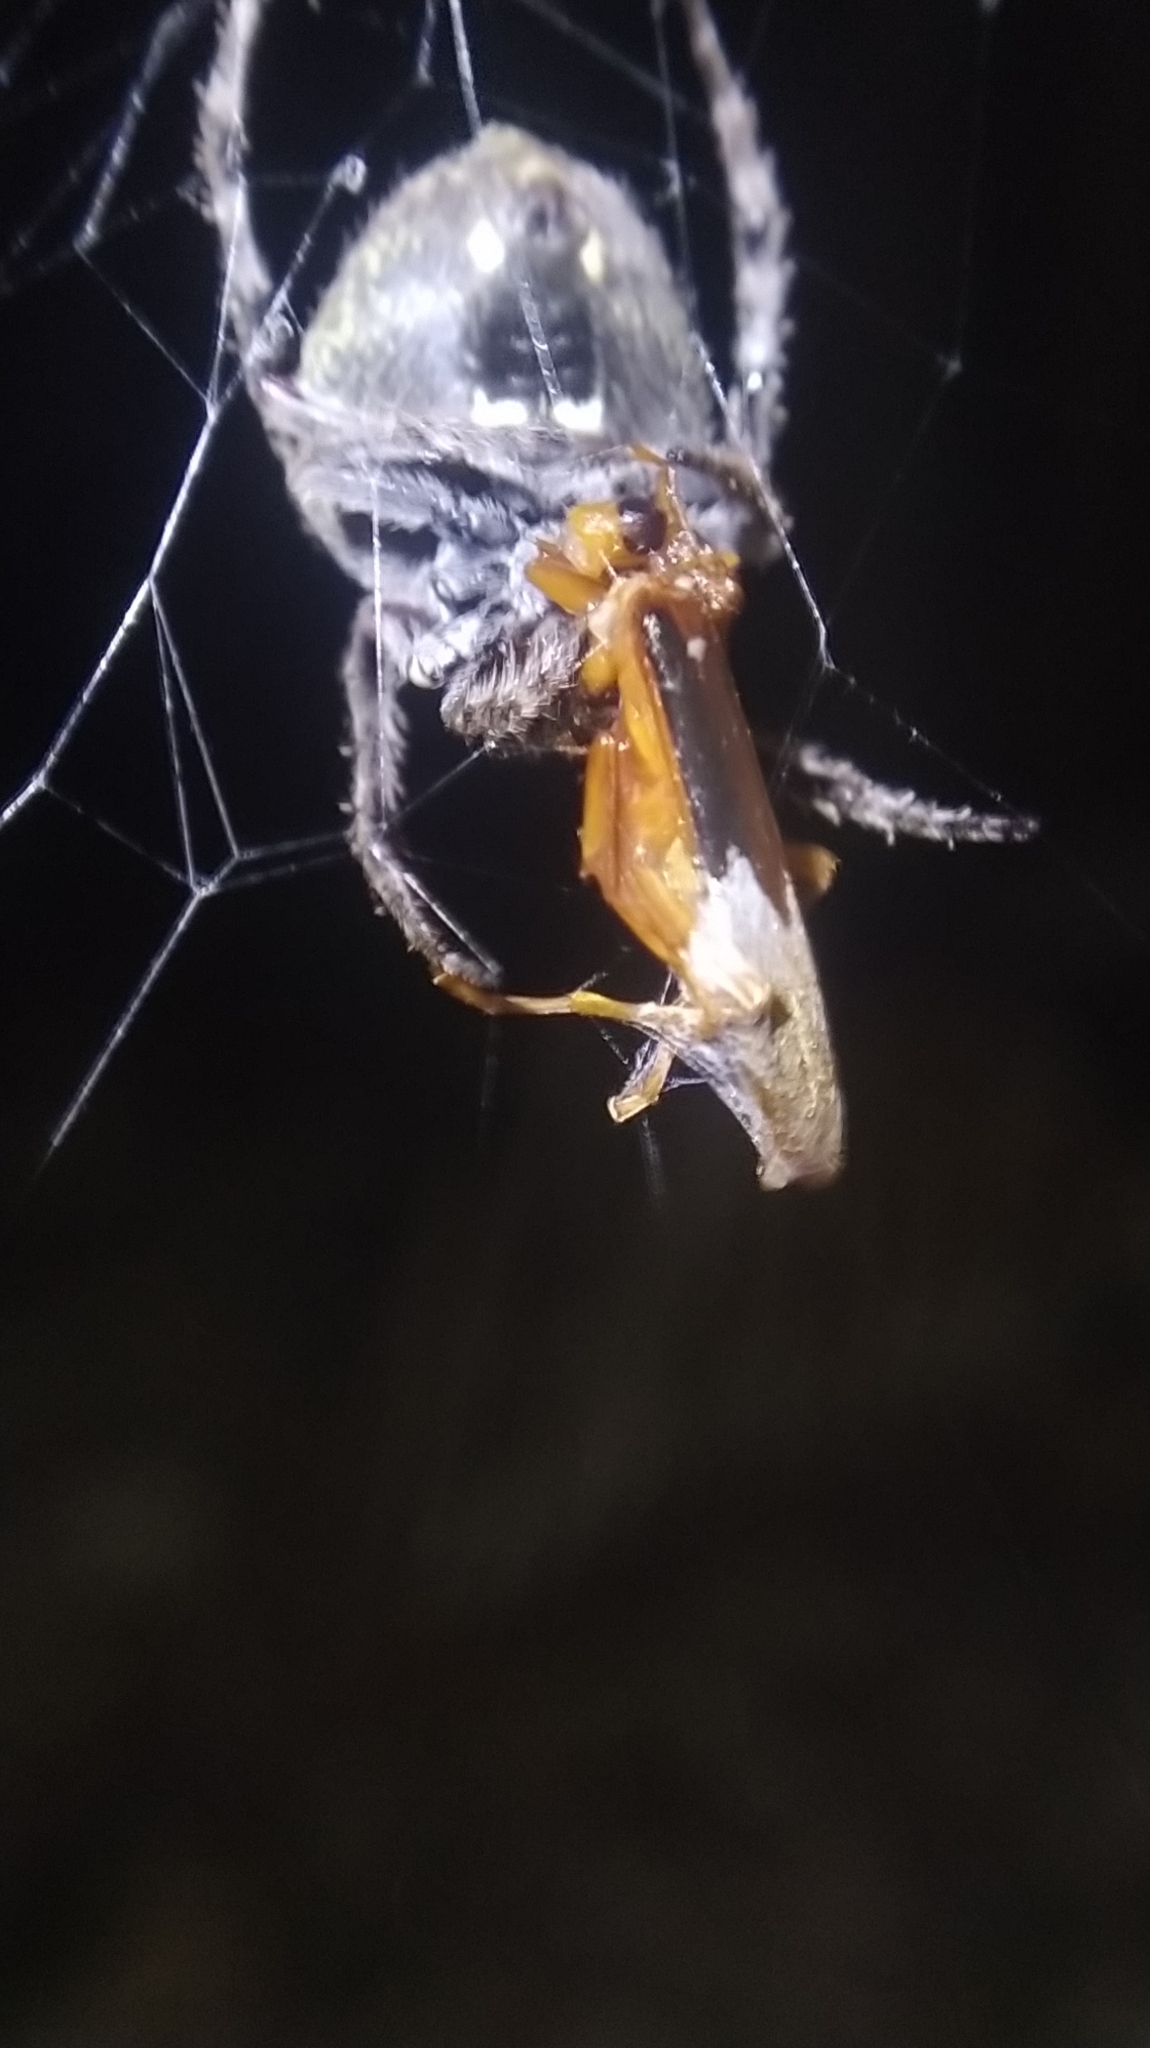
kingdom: Animalia
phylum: Arthropoda
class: Arachnida
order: Araneae
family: Araneidae
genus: Eriophora
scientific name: Eriophora pustulosa
